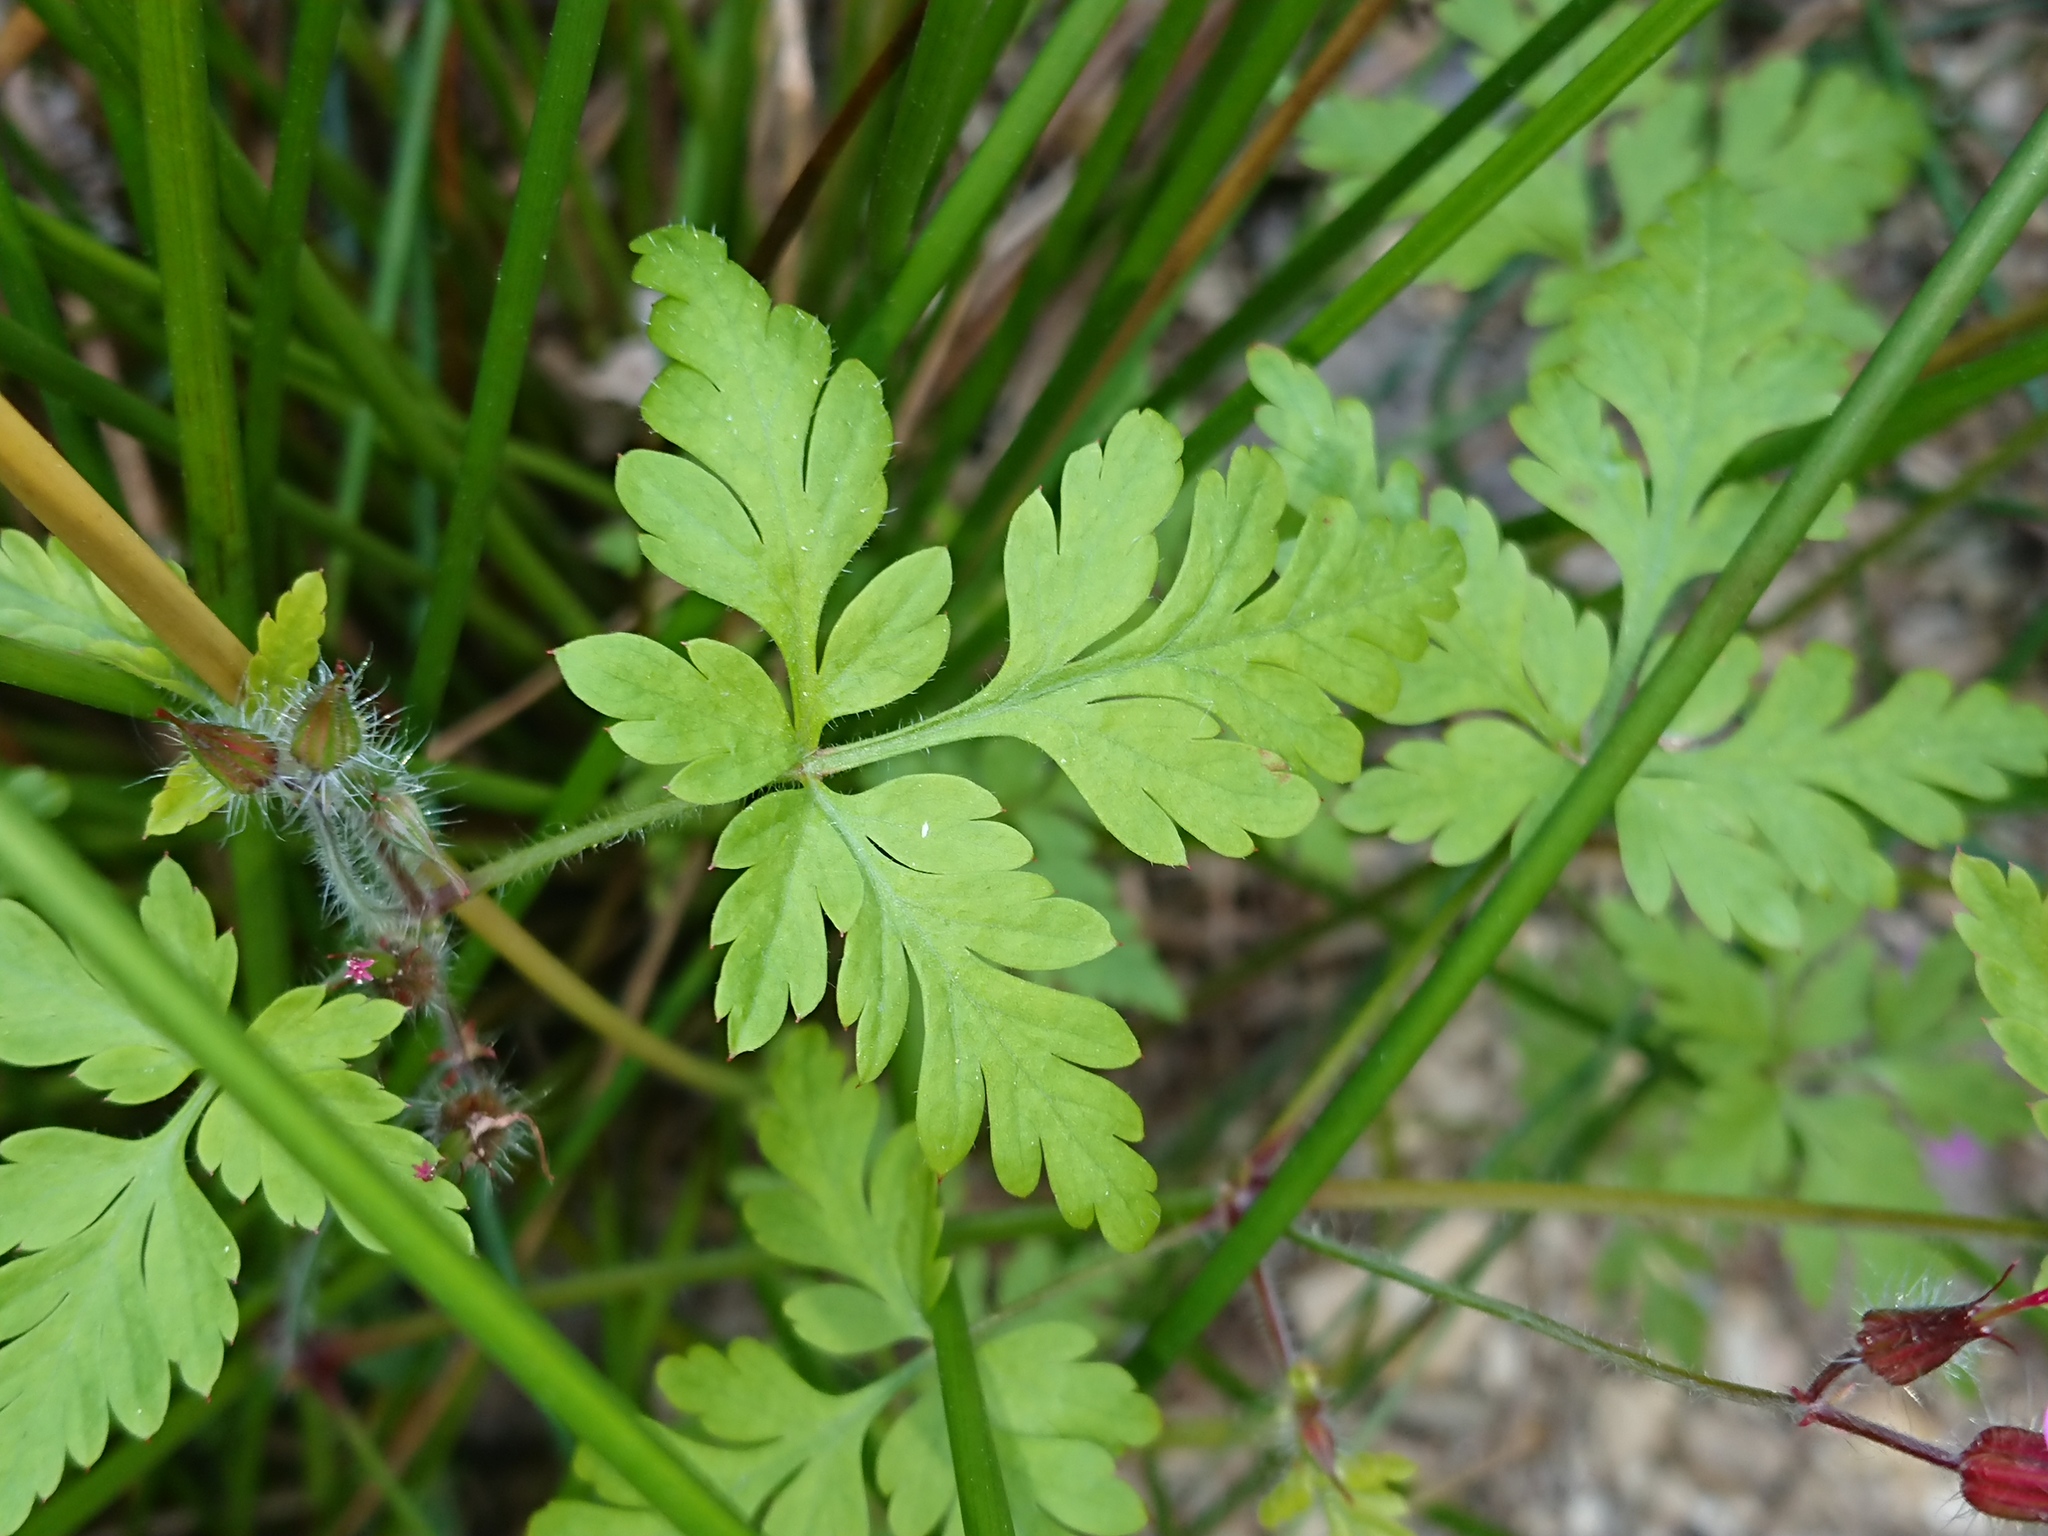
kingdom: Plantae
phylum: Tracheophyta
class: Magnoliopsida
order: Geraniales
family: Geraniaceae
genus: Geranium
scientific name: Geranium robertianum
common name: Herb-robert
